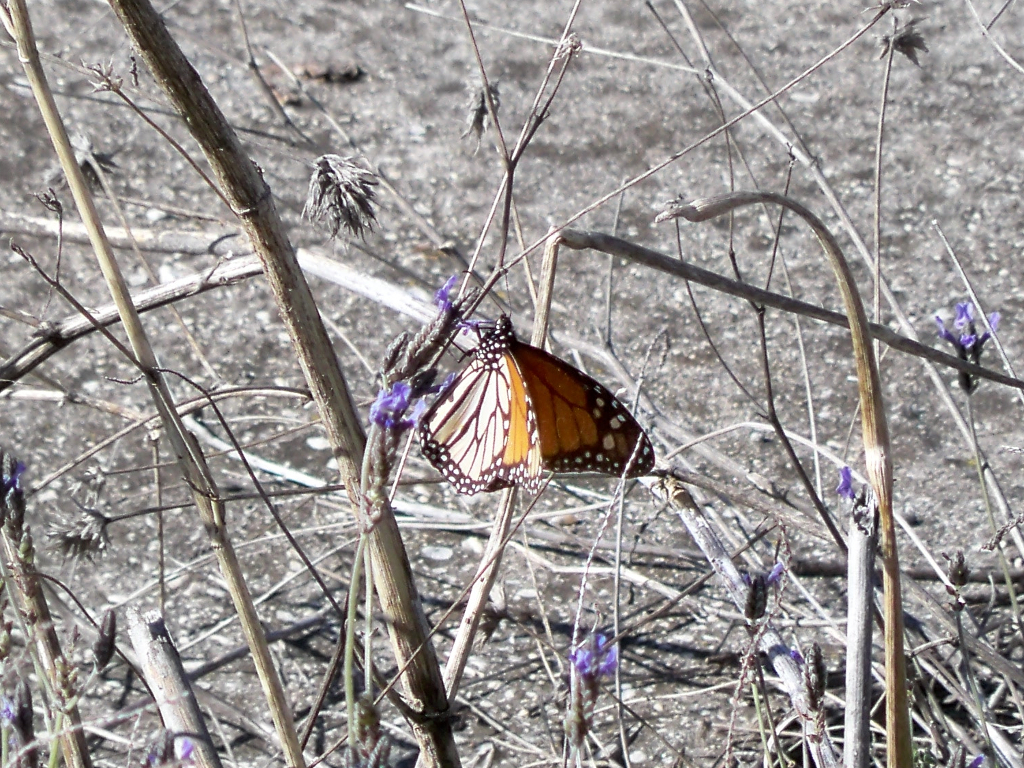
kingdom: Animalia
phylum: Arthropoda
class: Insecta
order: Lepidoptera
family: Nymphalidae
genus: Danaus
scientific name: Danaus plexippus
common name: Monarch
